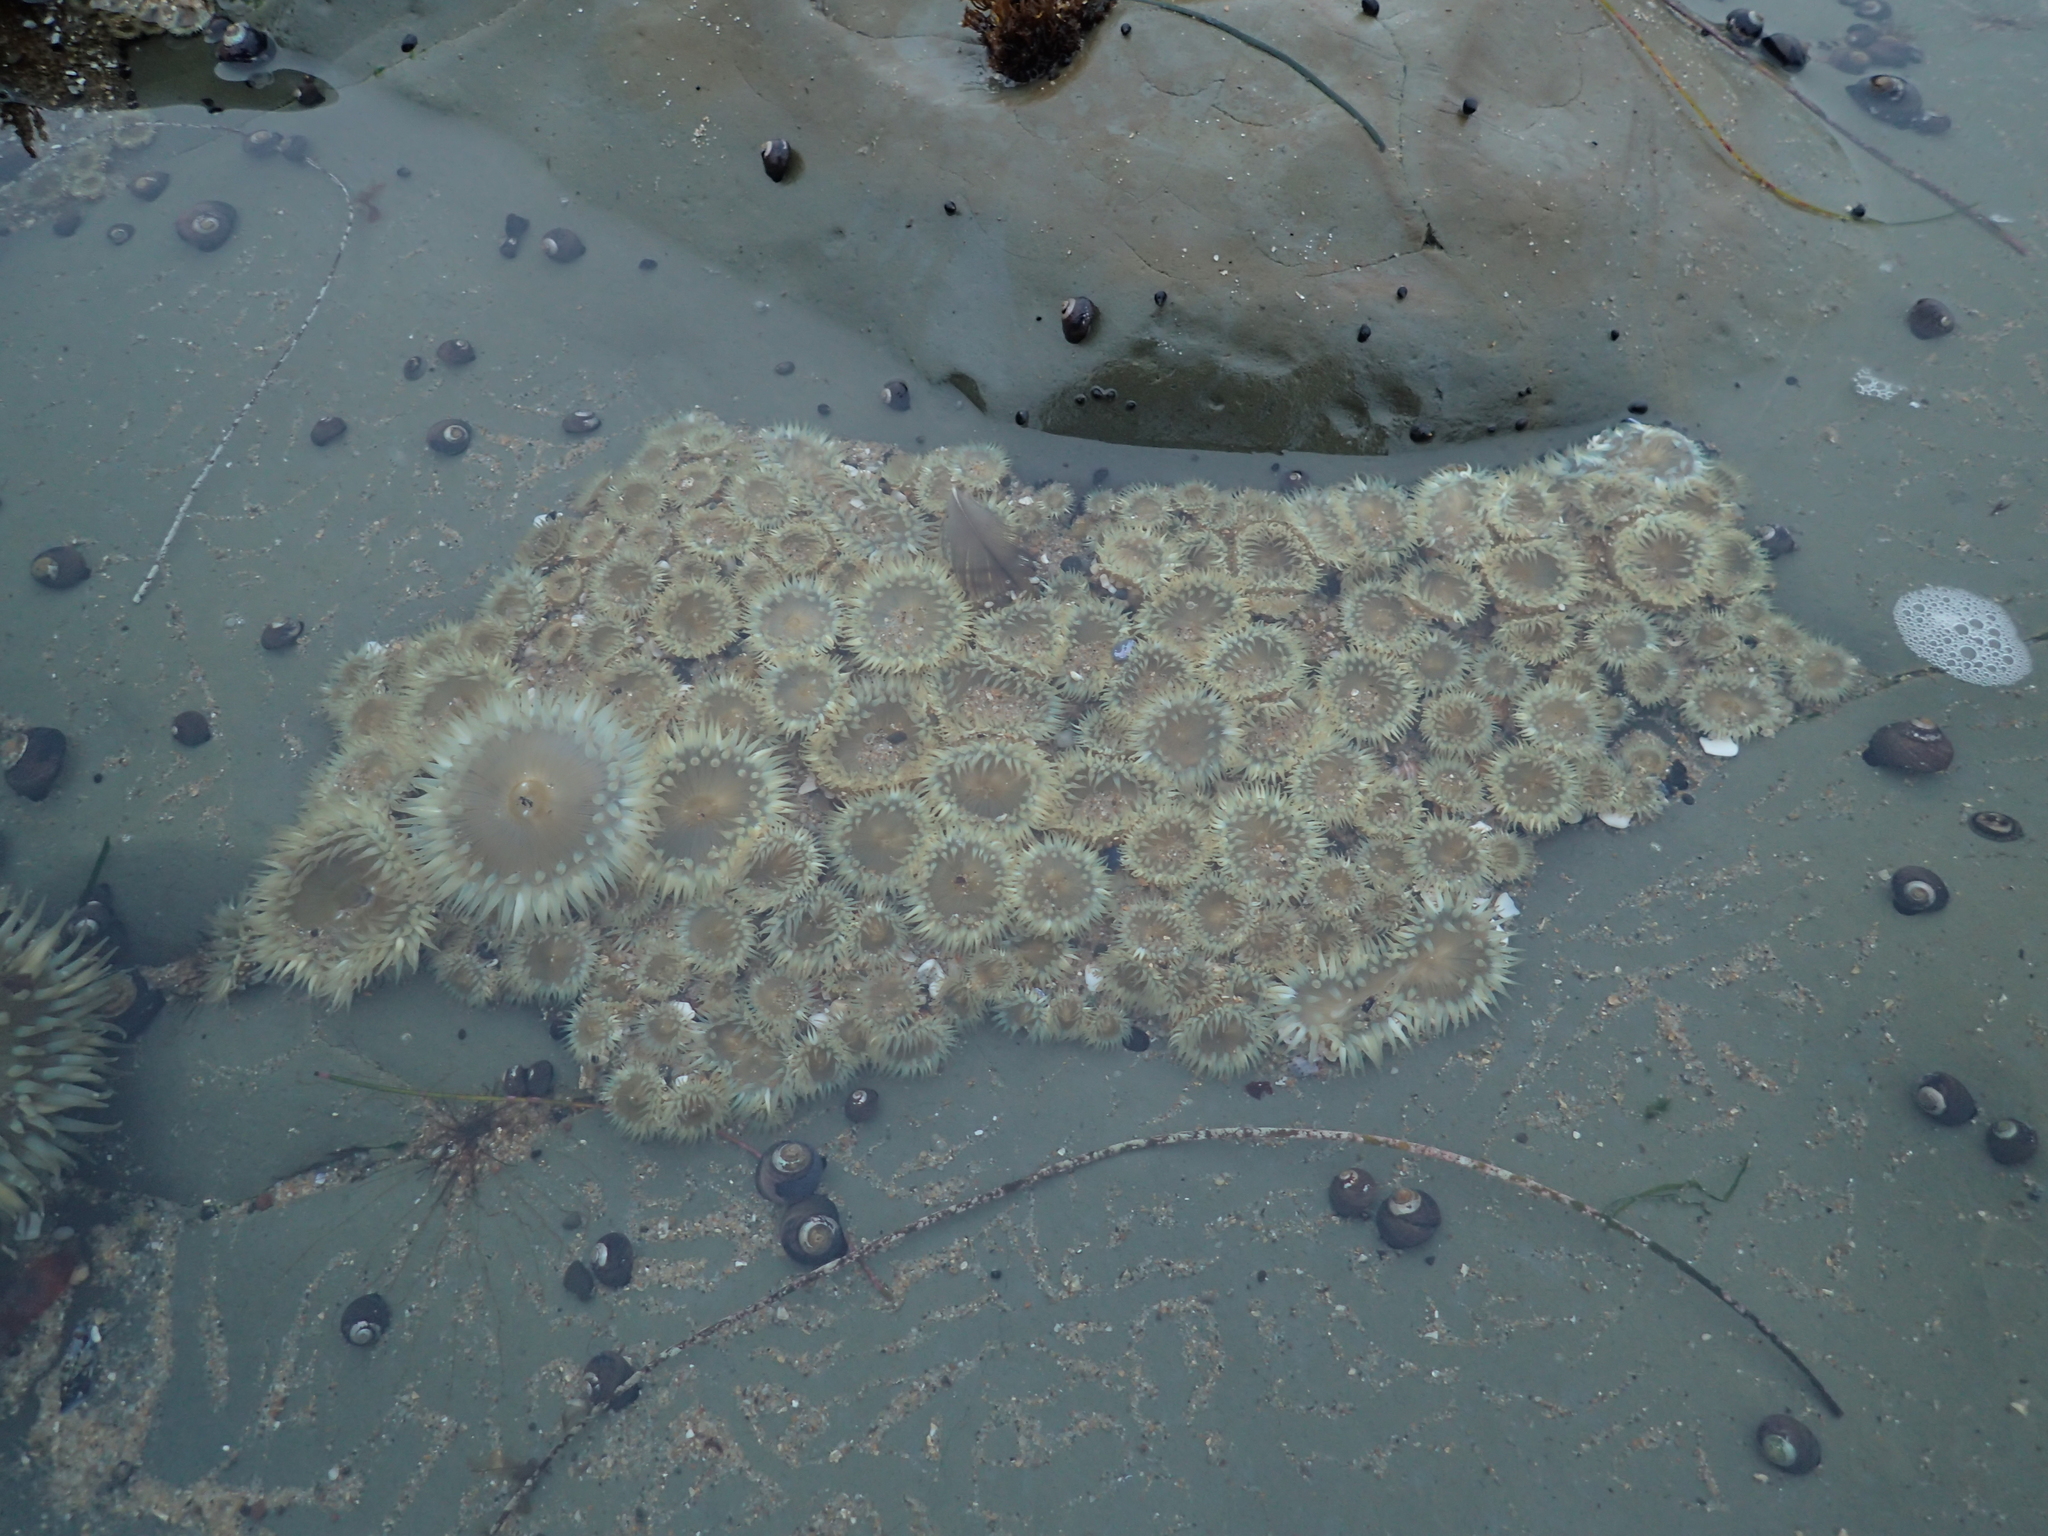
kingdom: Animalia
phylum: Cnidaria
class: Anthozoa
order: Actiniaria
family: Actiniidae
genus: Anthopleura
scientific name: Anthopleura elegantissima
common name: Clonal anemone
